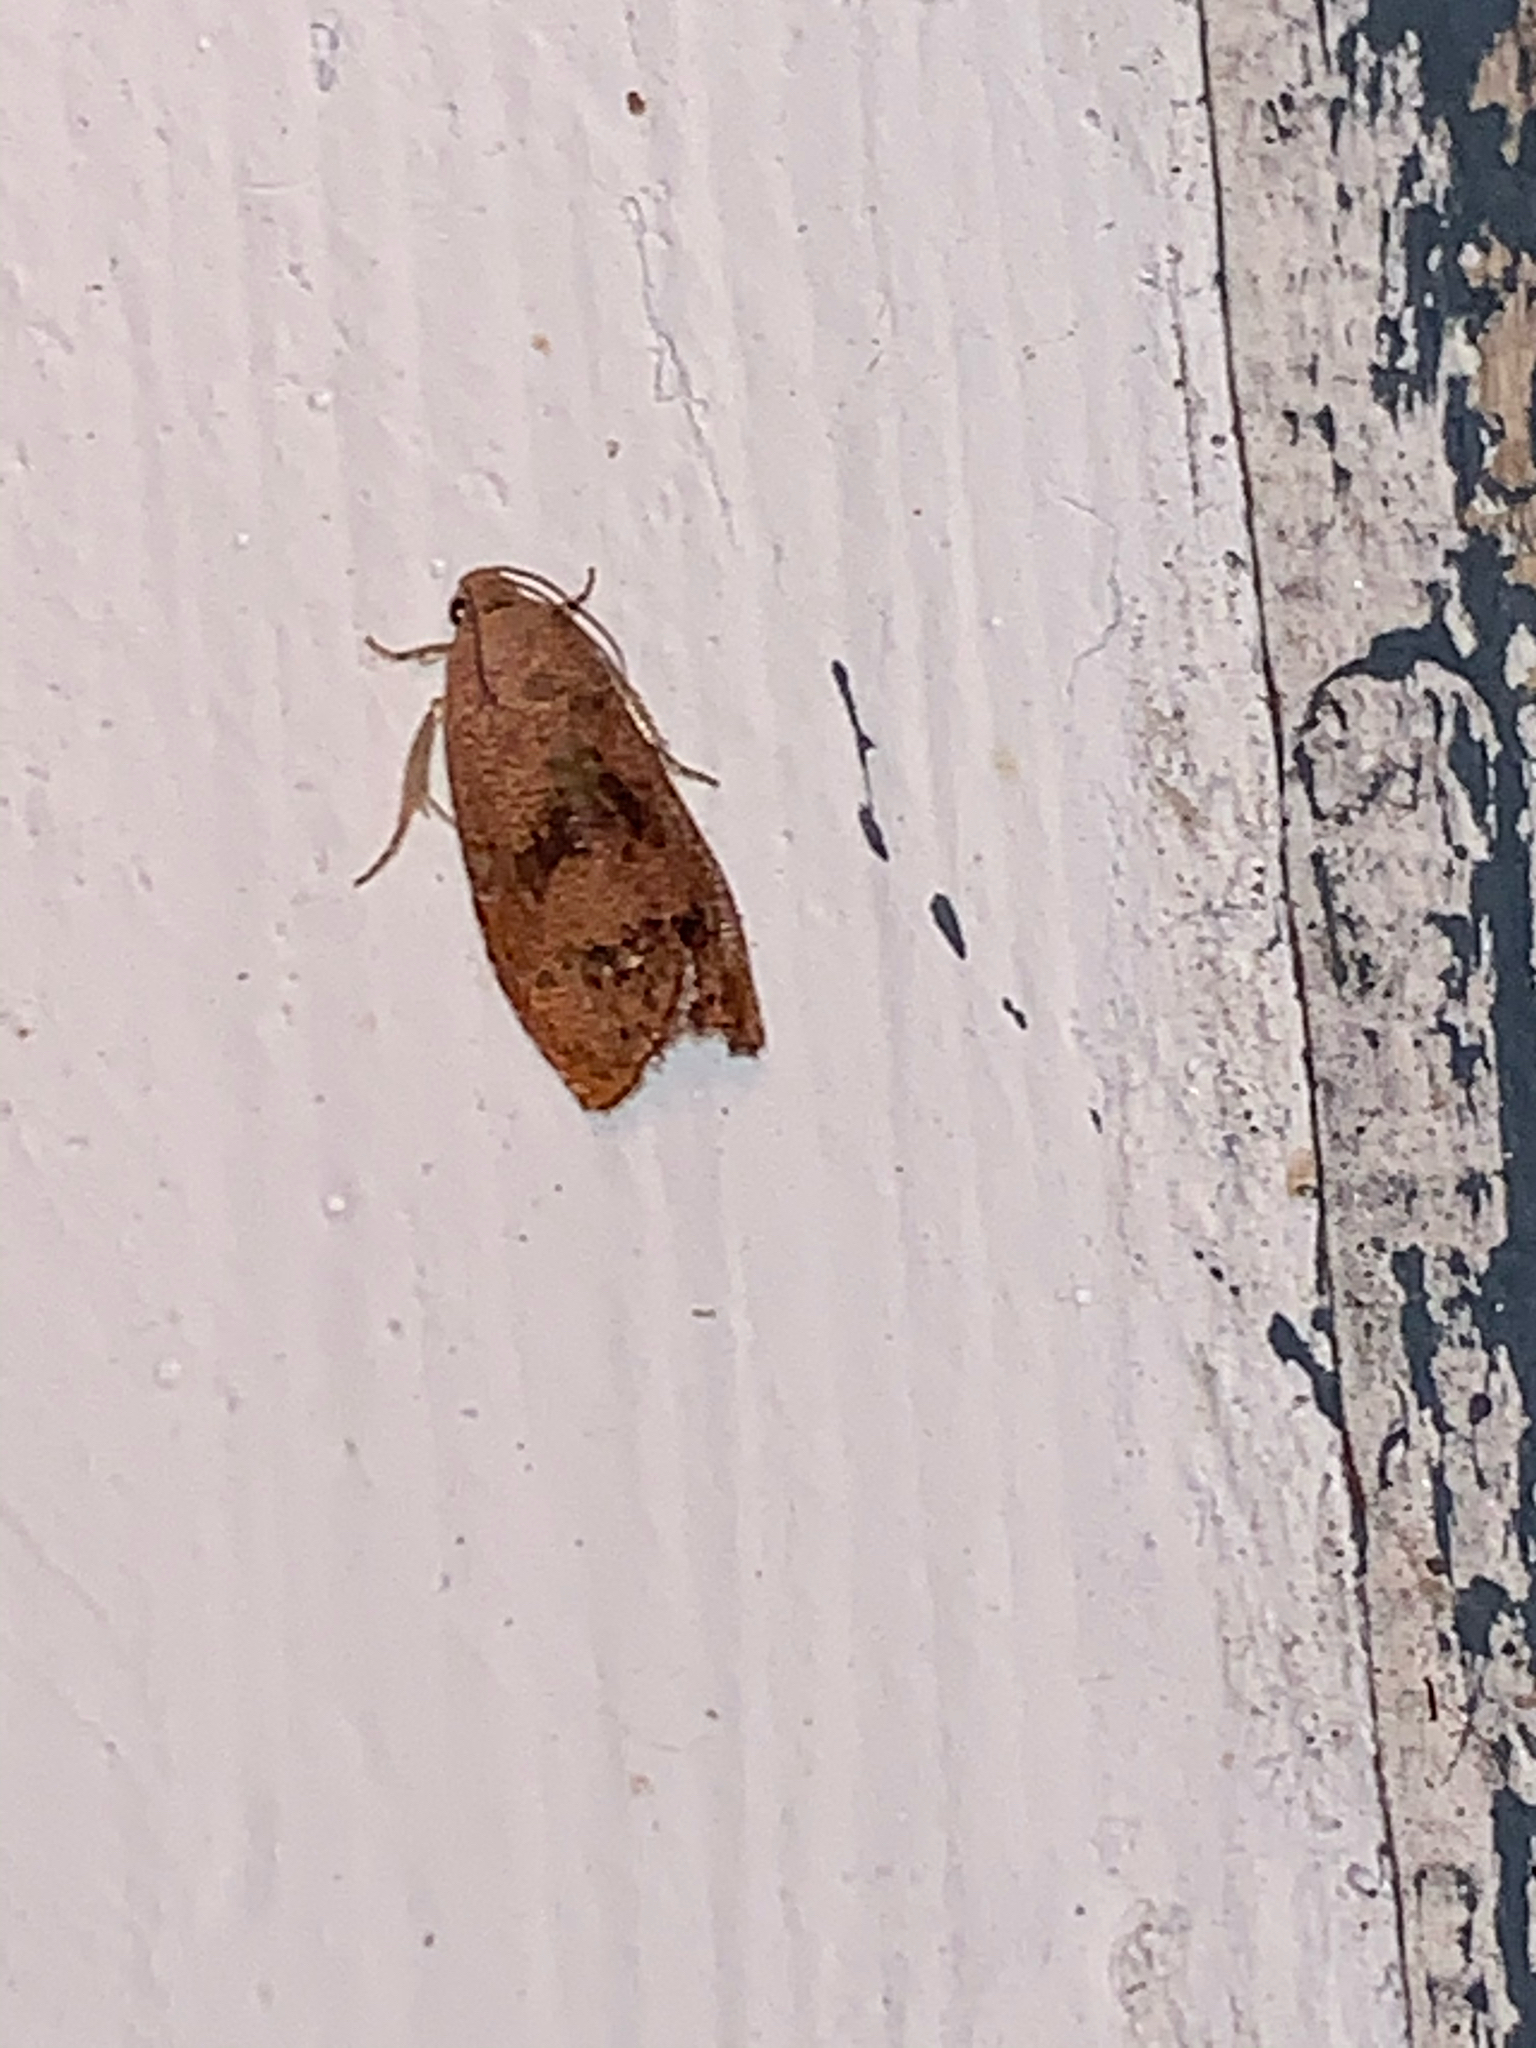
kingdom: Animalia
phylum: Arthropoda
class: Insecta
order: Lepidoptera
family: Tortricidae
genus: Cydia
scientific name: Cydia latiferreana
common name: Filbertworm moth
